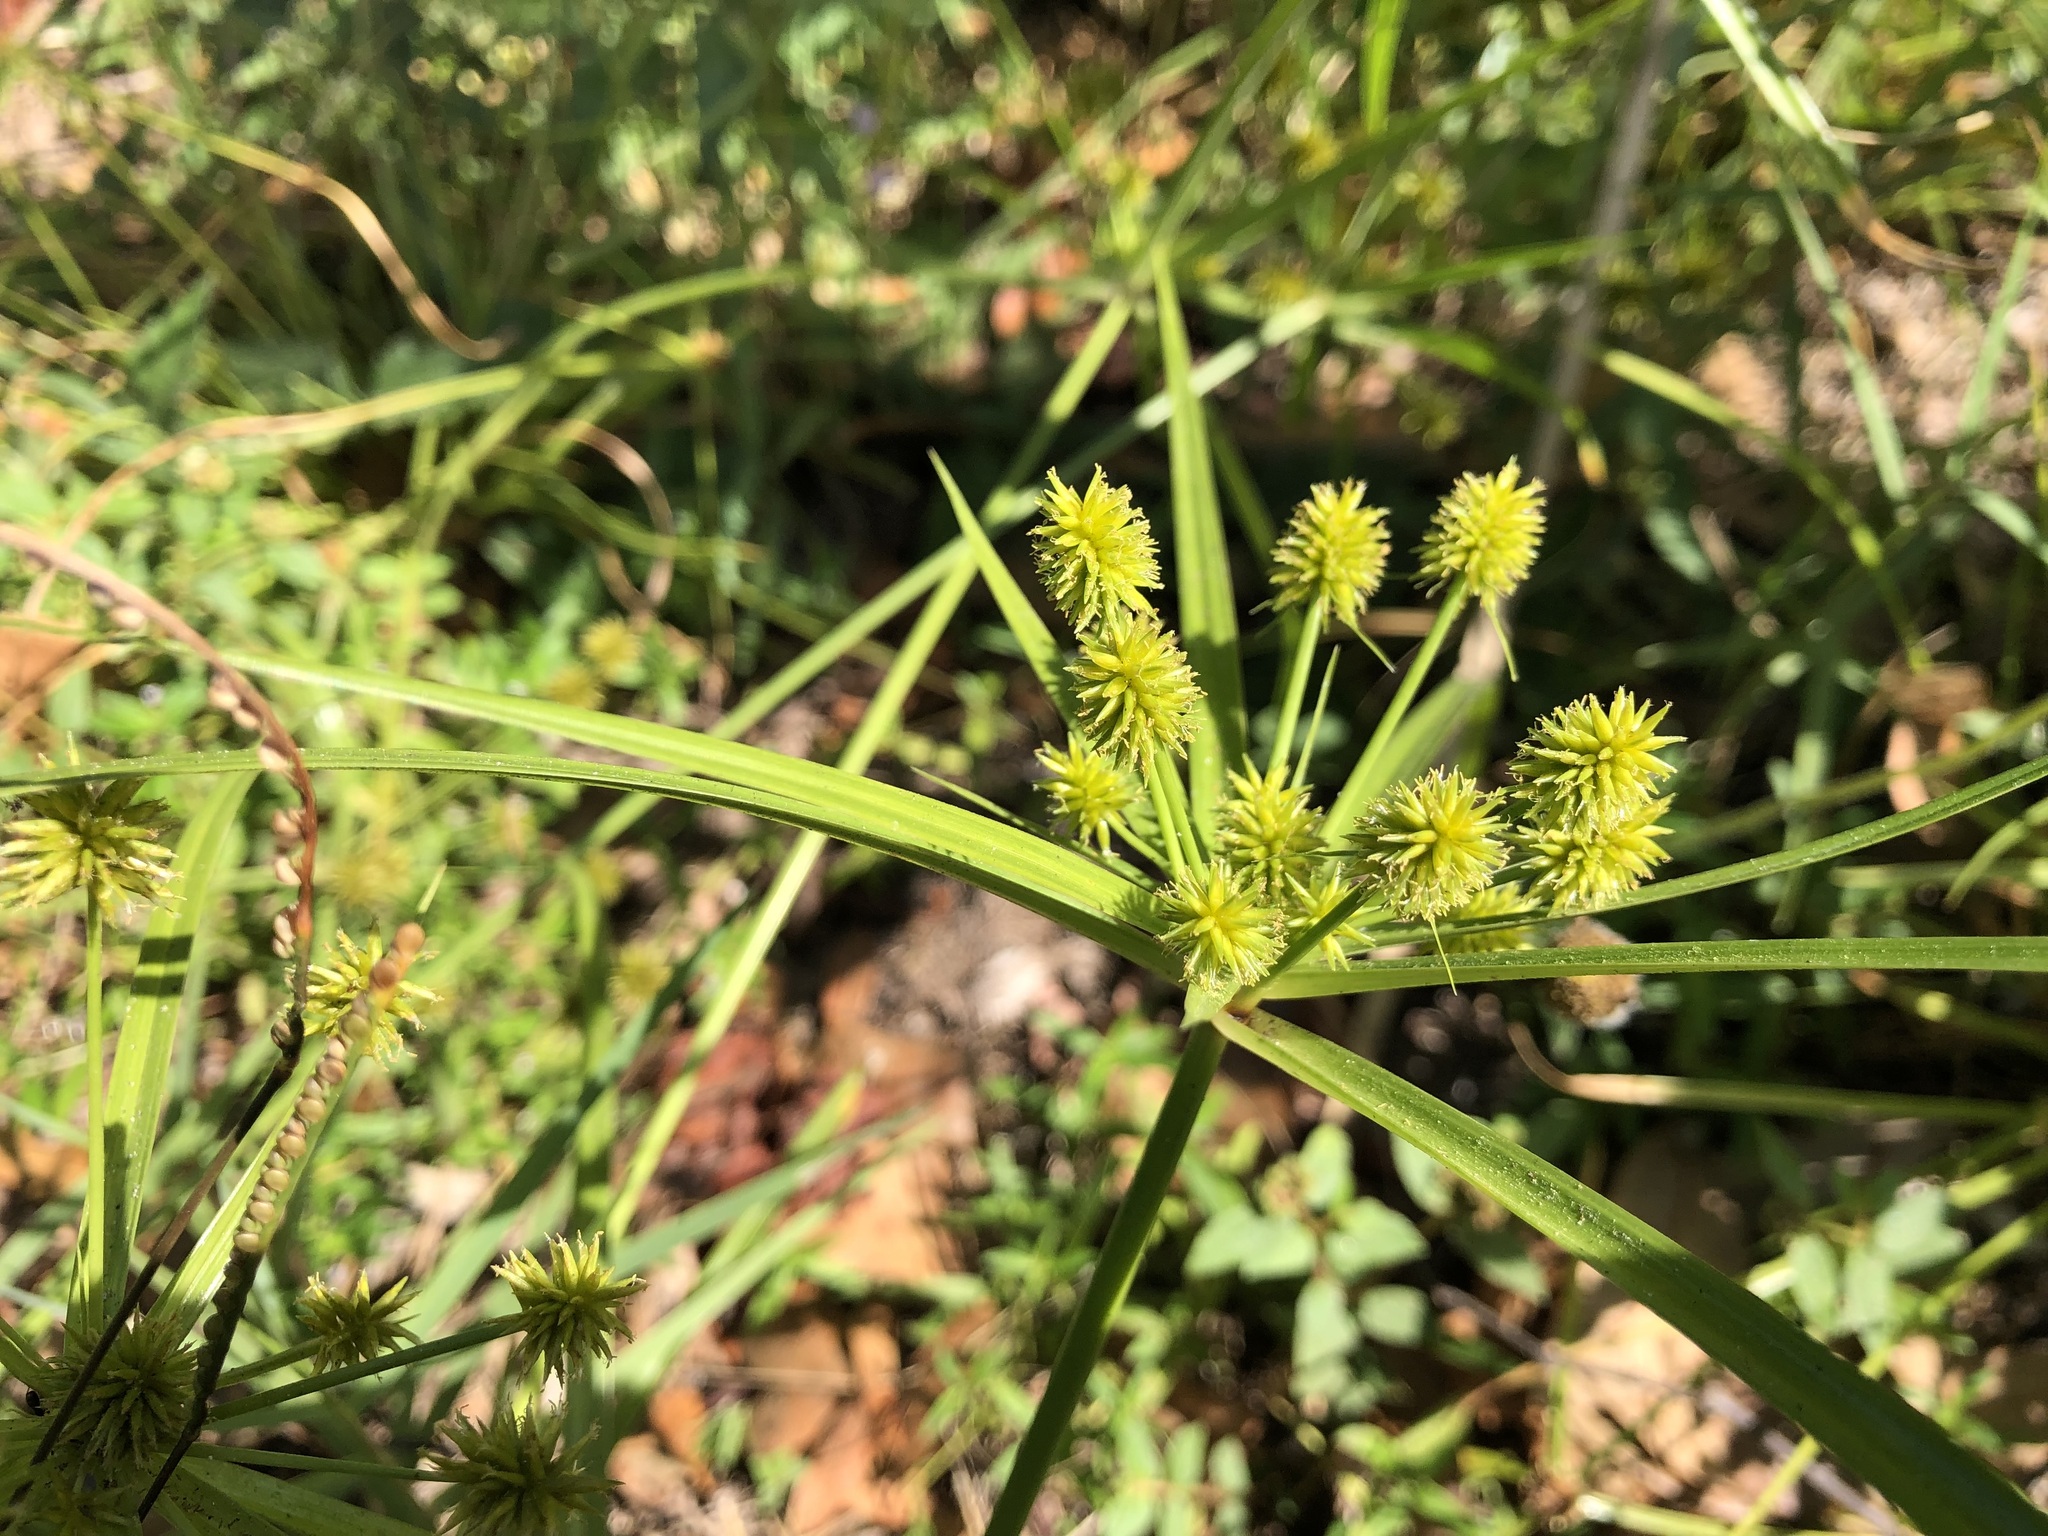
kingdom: Plantae
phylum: Tracheophyta
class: Liliopsida
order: Poales
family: Cyperaceae
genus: Cyperus
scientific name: Cyperus croceus
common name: Baldwin's flatsedge
